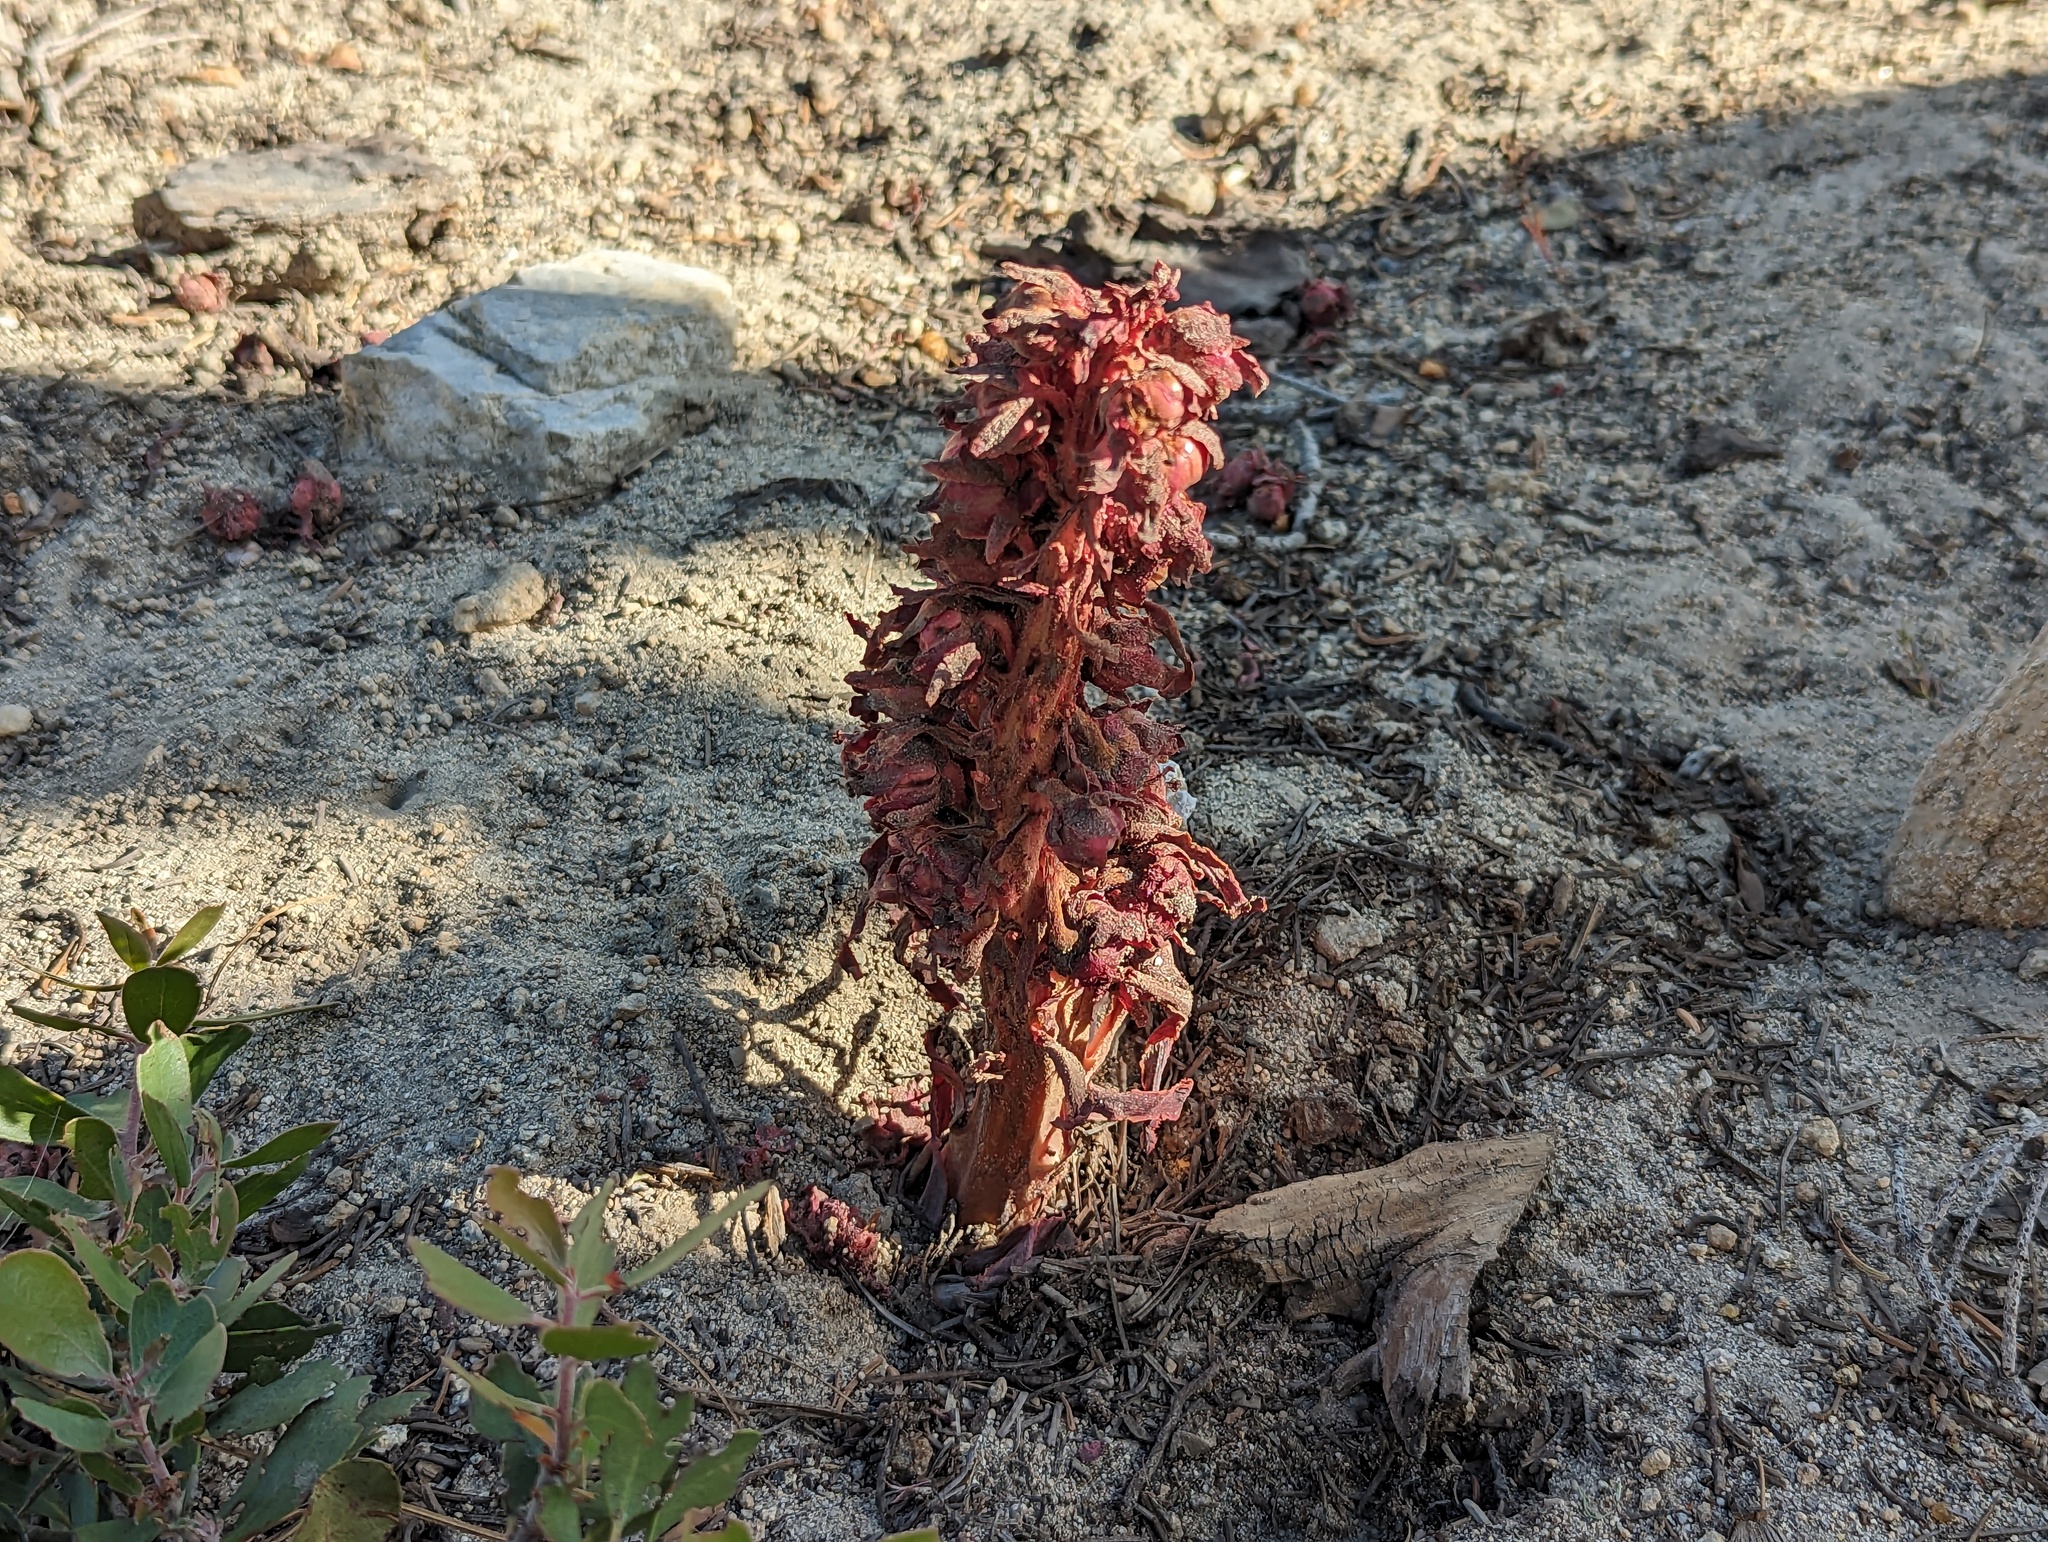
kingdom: Plantae
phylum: Tracheophyta
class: Magnoliopsida
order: Ericales
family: Ericaceae
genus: Sarcodes
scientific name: Sarcodes sanguinea
